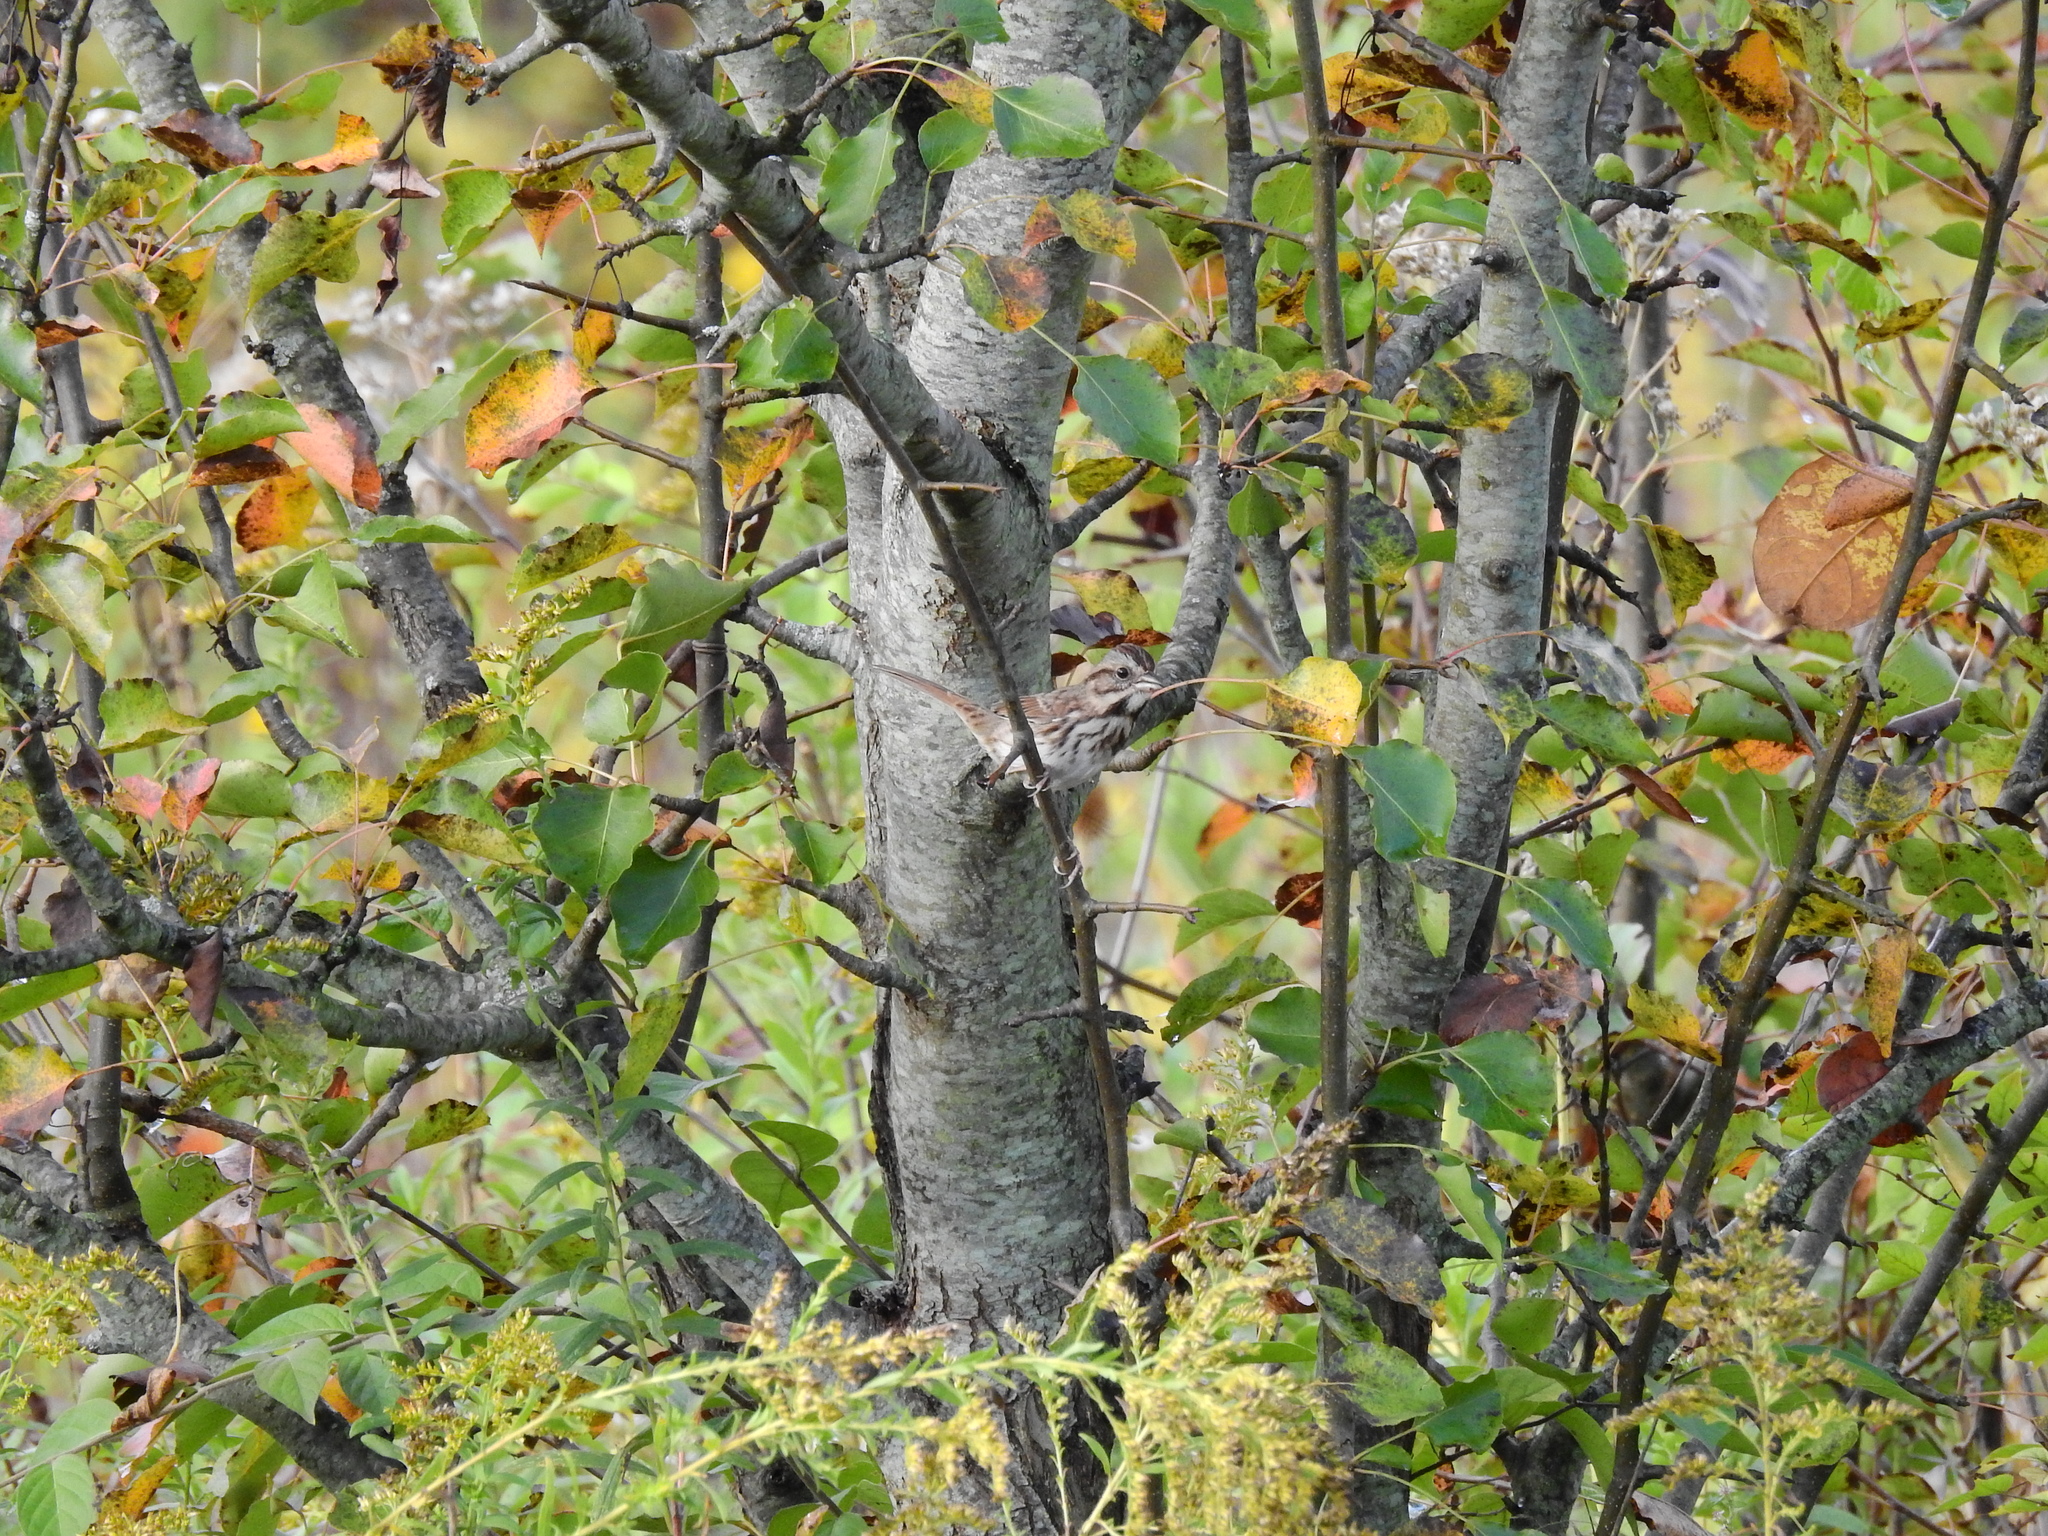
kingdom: Animalia
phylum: Chordata
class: Aves
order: Passeriformes
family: Passerellidae
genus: Melospiza
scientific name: Melospiza melodia
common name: Song sparrow
